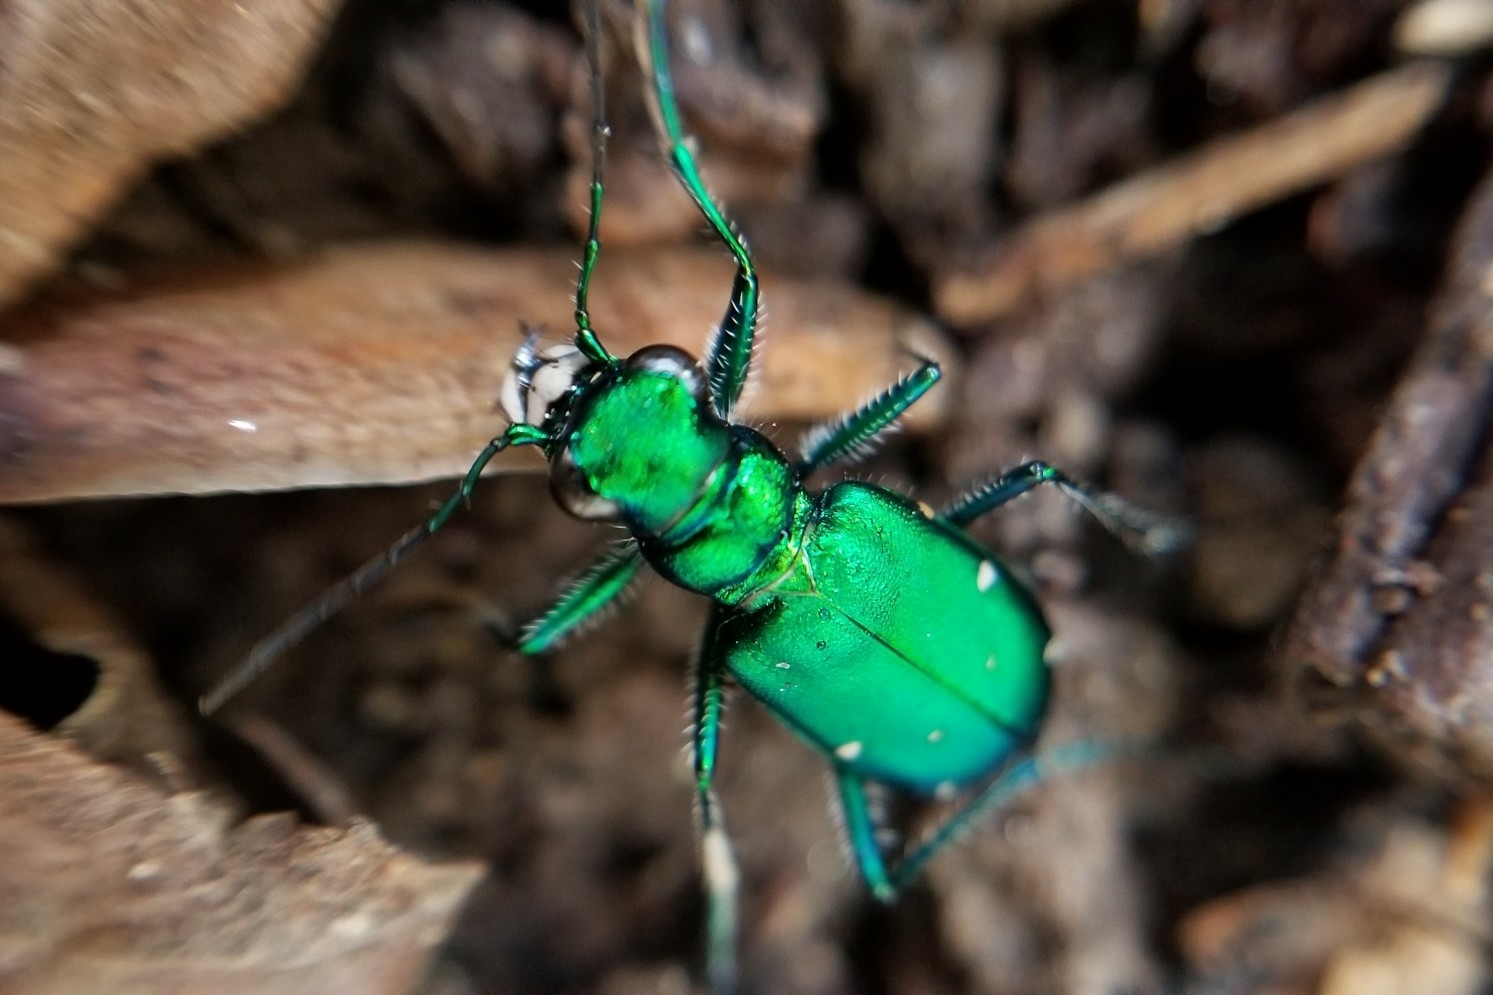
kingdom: Animalia
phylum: Arthropoda
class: Insecta
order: Coleoptera
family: Carabidae
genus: Cicindela
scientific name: Cicindela sexguttata
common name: Six-spotted tiger beetle
